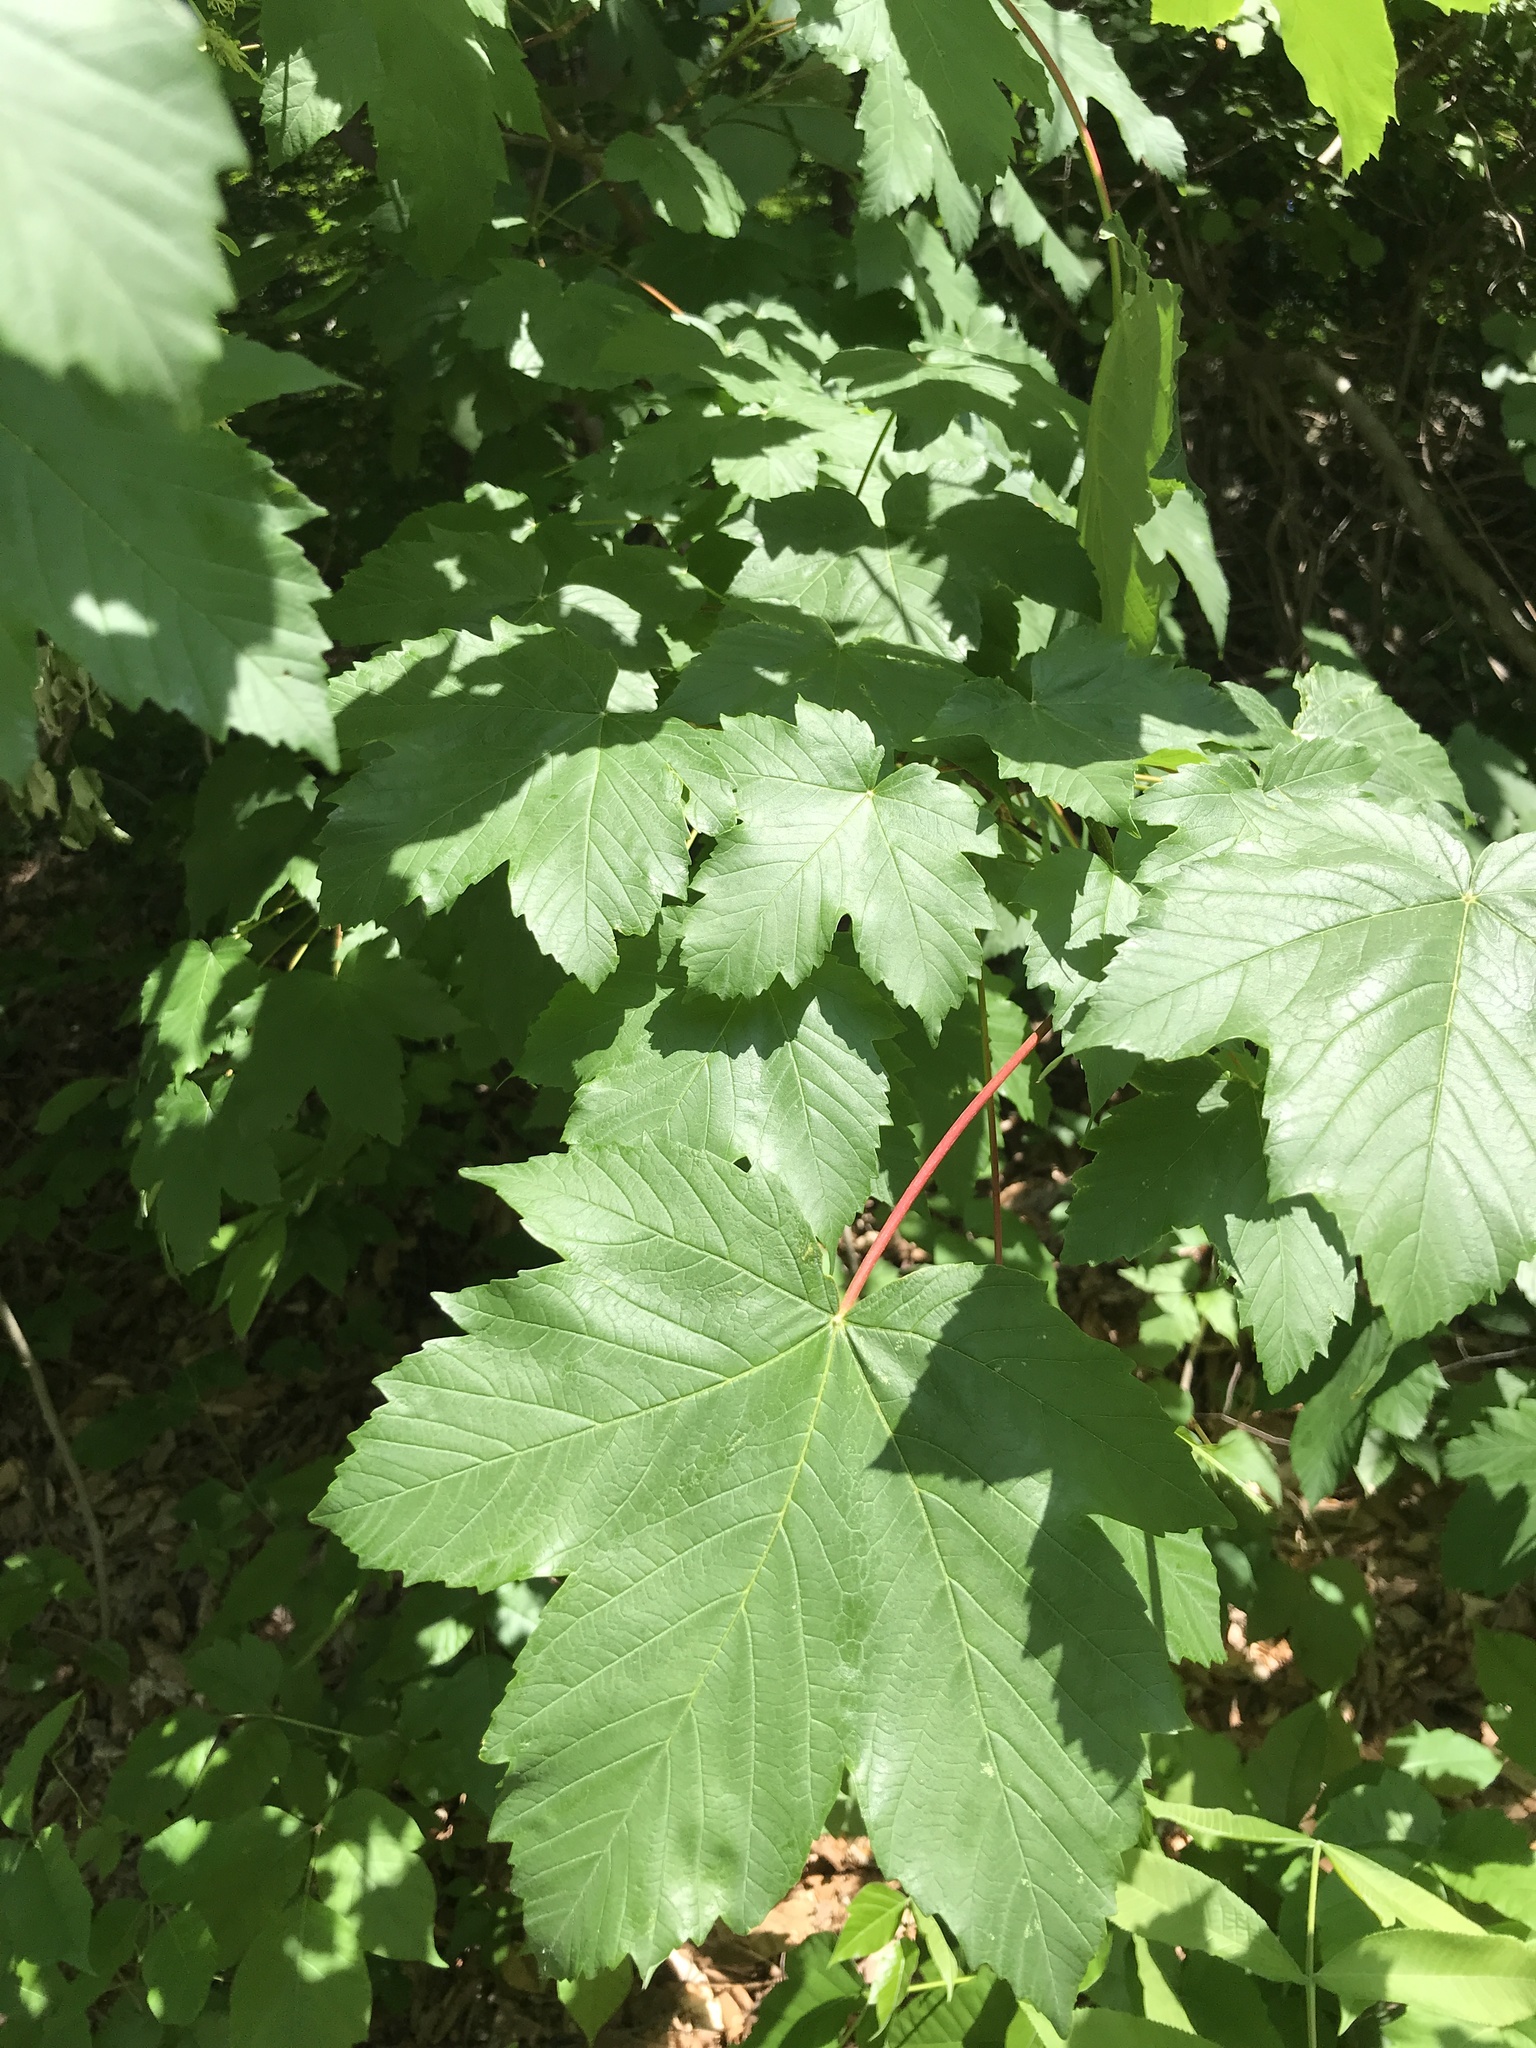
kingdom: Plantae
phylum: Tracheophyta
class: Magnoliopsida
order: Sapindales
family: Sapindaceae
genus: Acer
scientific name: Acer pseudoplatanus
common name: Sycamore
